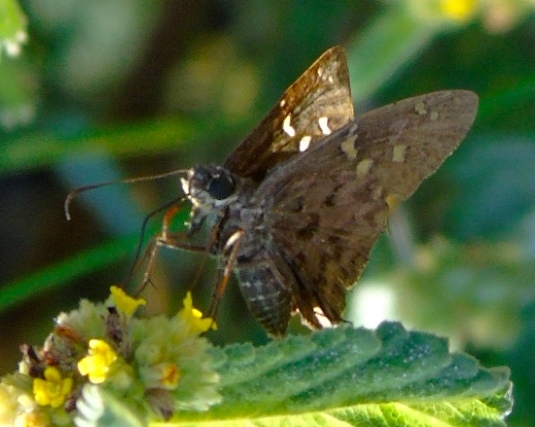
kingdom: Animalia
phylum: Arthropoda
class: Insecta
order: Lepidoptera
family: Hesperiidae
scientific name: Hesperiidae
